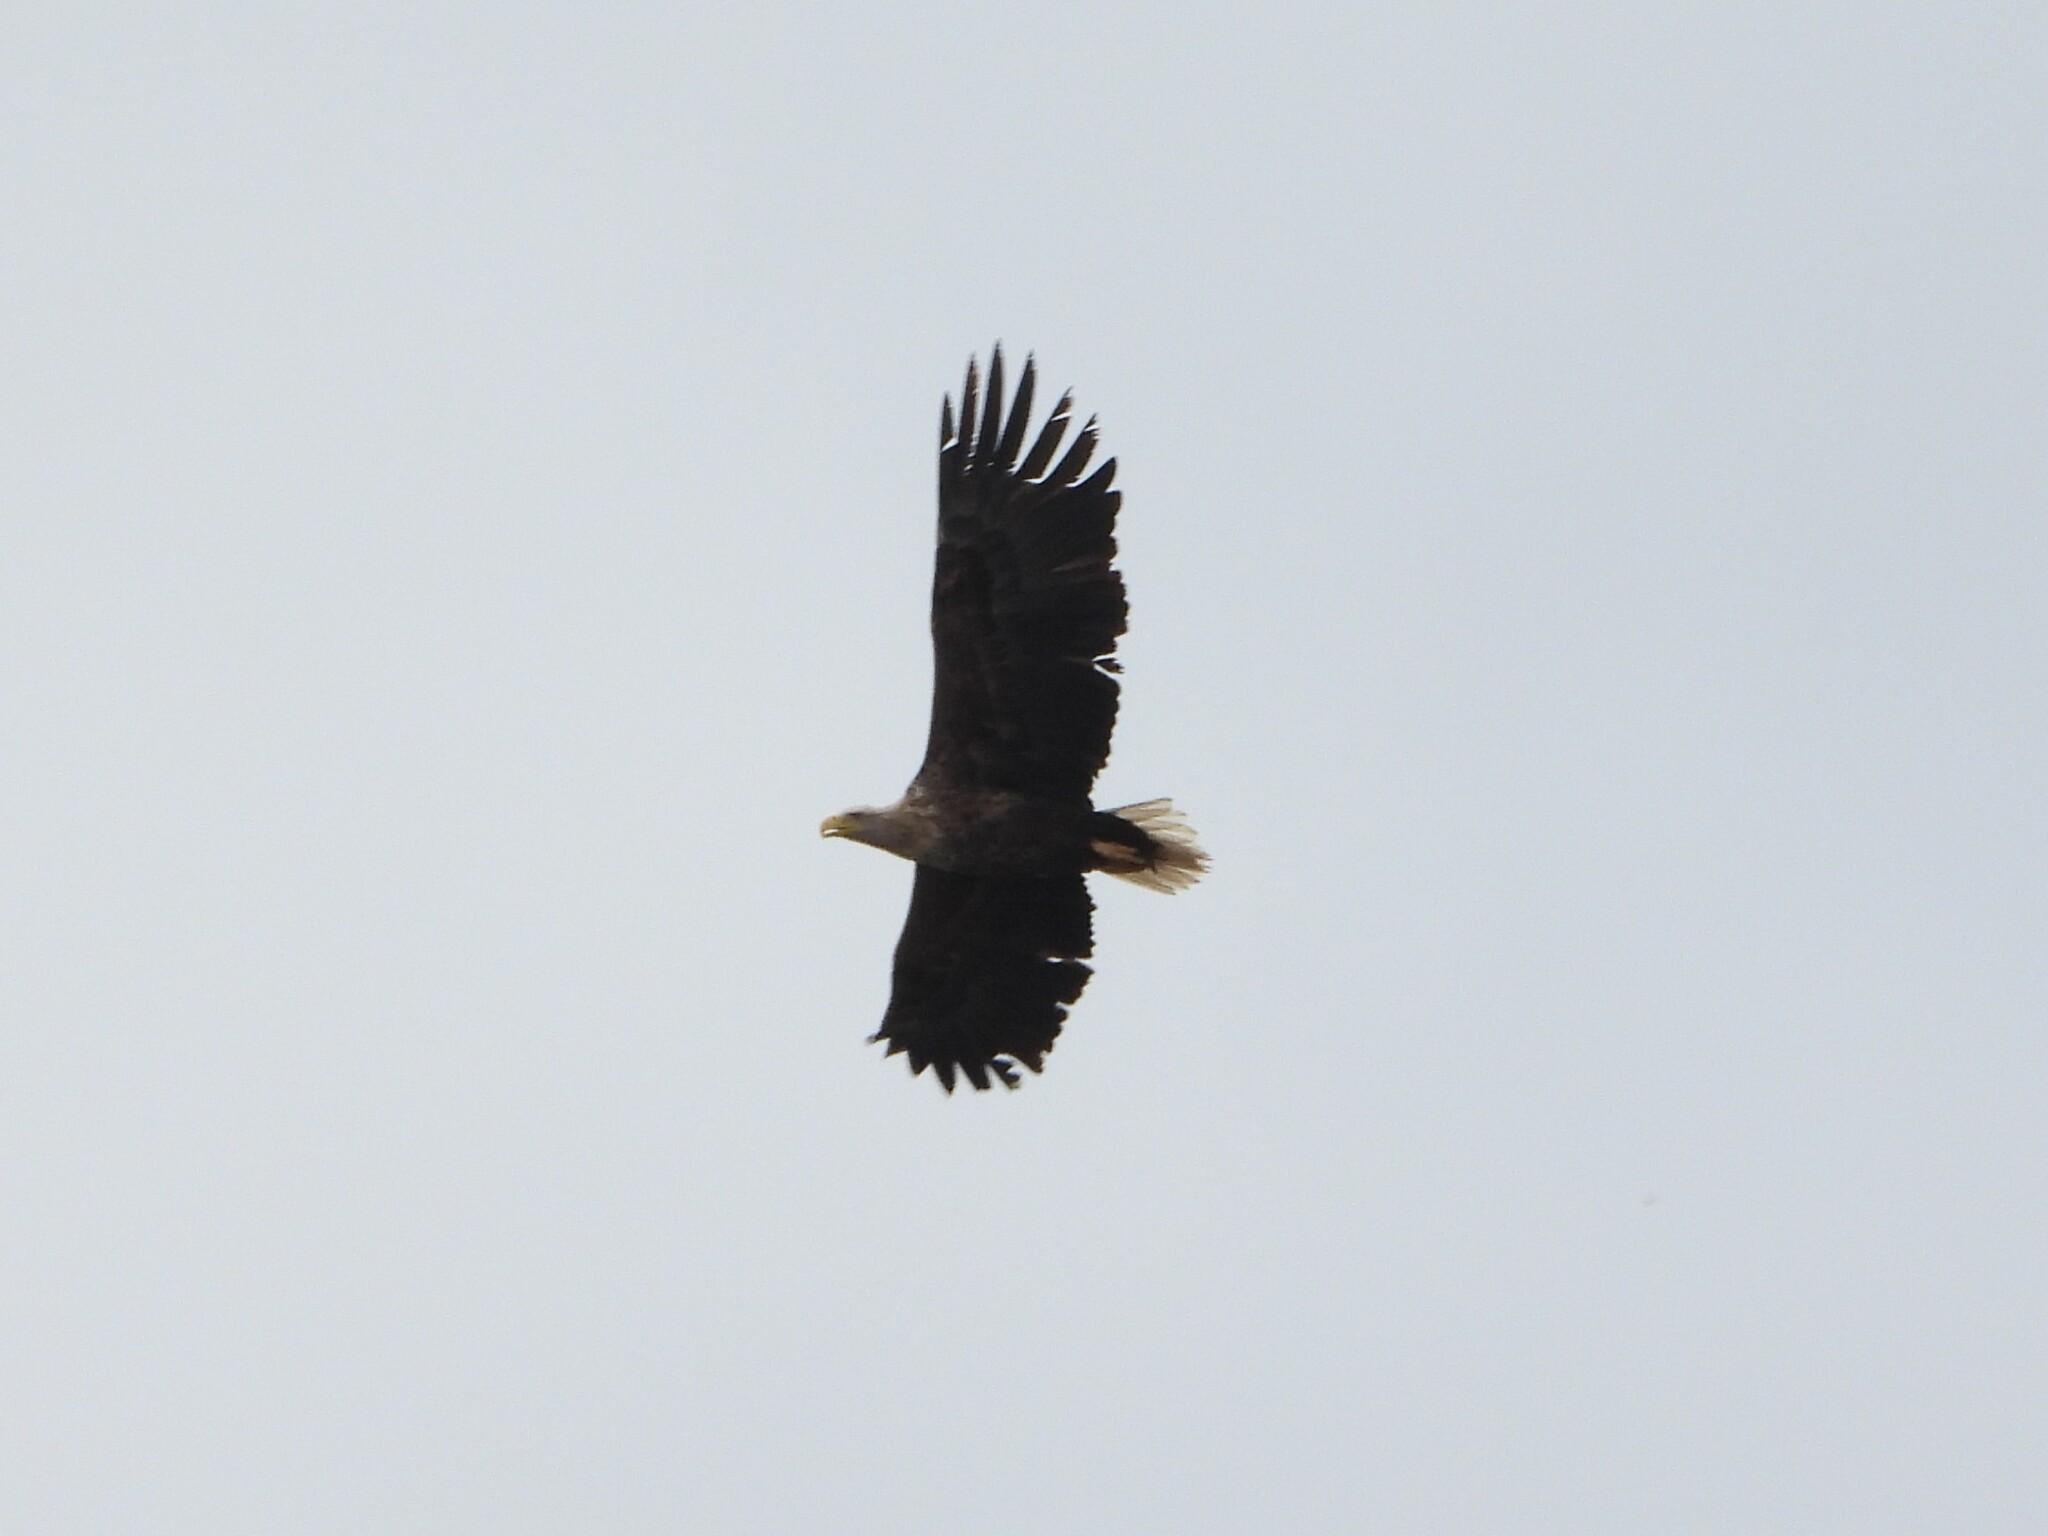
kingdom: Animalia
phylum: Chordata
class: Aves
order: Accipitriformes
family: Accipitridae
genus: Haliaeetus
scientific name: Haliaeetus albicilla
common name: White-tailed eagle
